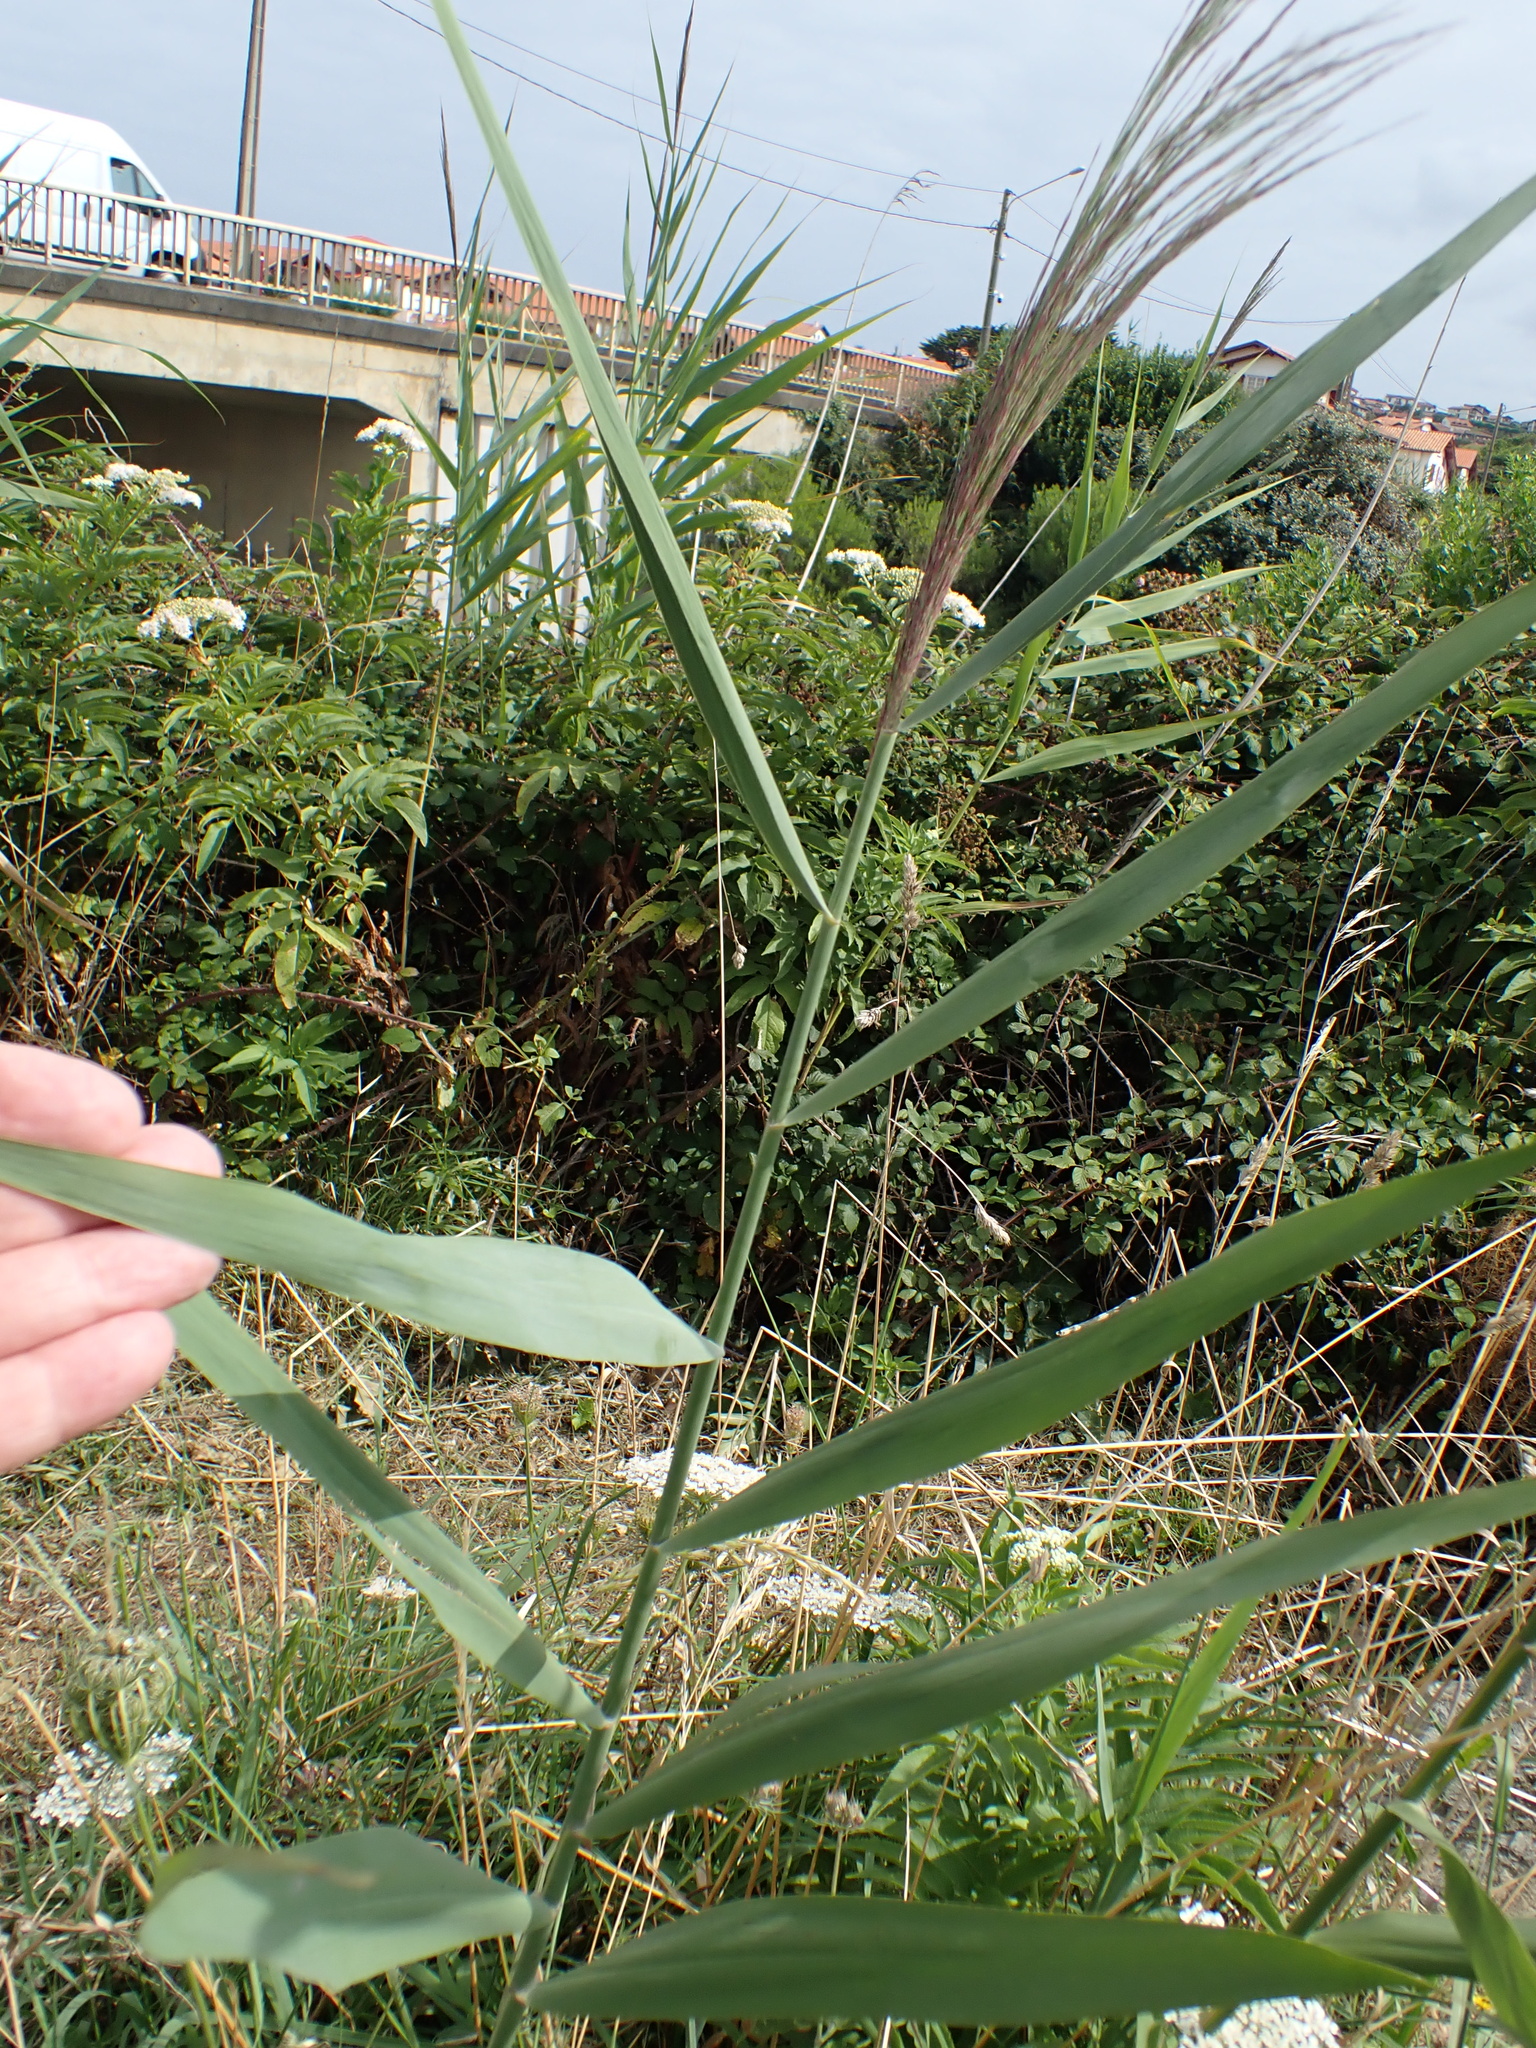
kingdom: Plantae
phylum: Tracheophyta
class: Liliopsida
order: Poales
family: Poaceae
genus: Phragmites
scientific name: Phragmites australis
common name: Common reed
